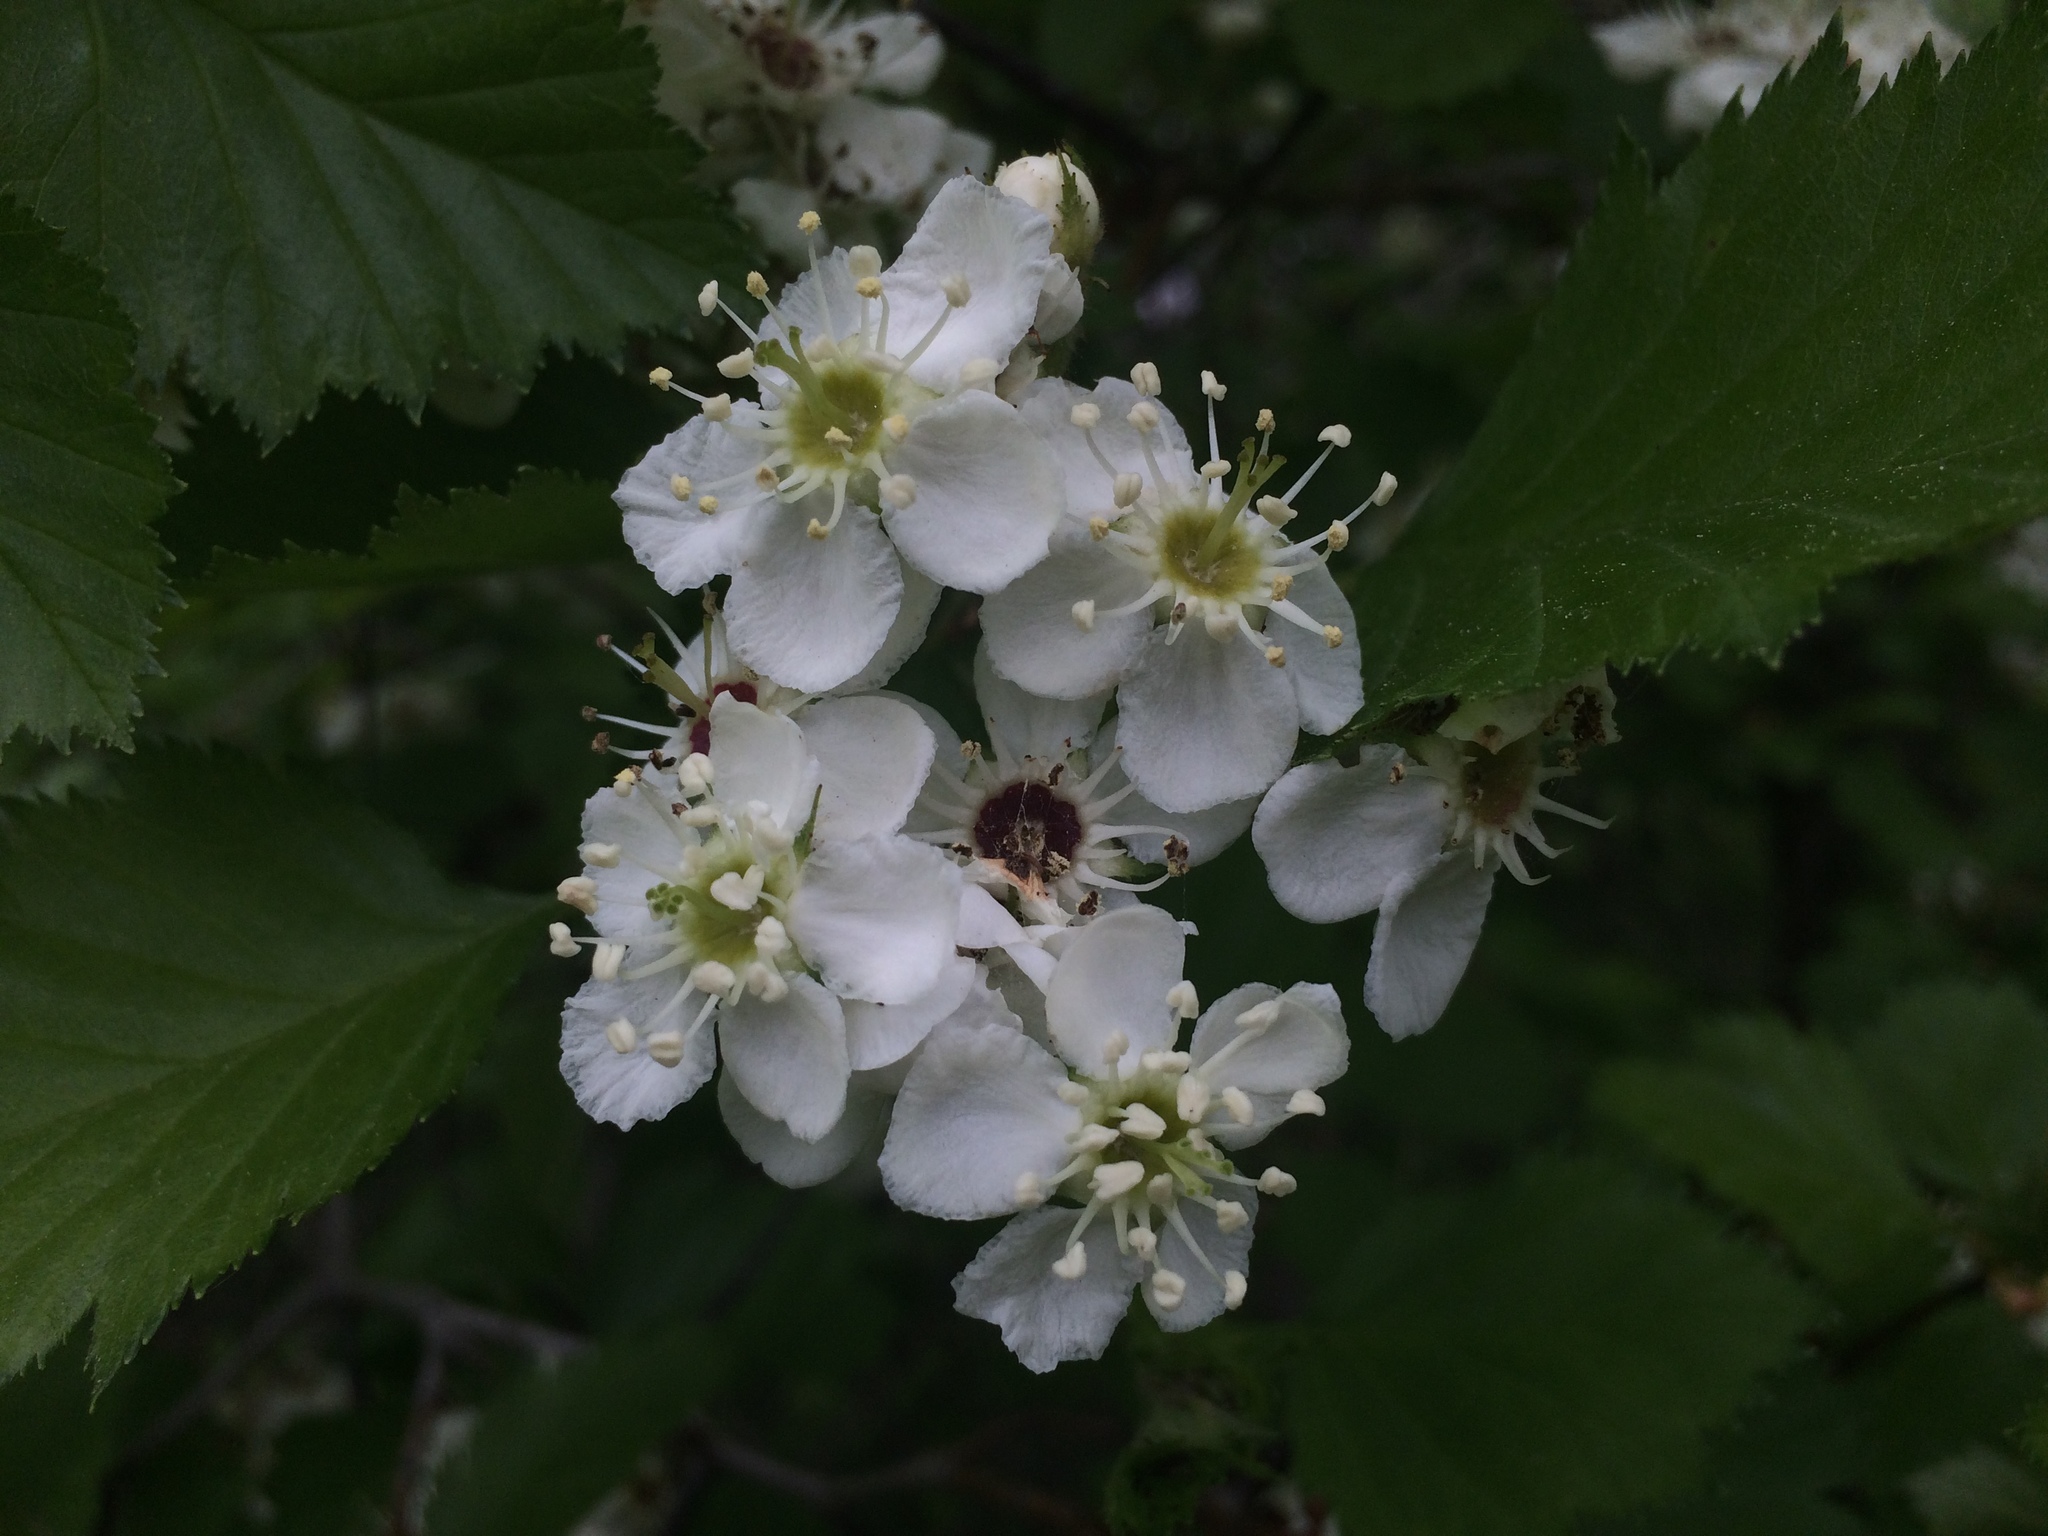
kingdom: Plantae
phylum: Tracheophyta
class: Magnoliopsida
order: Rosales
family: Rosaceae
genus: Crataegus
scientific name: Crataegus submollis
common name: Hairy cockspurthorn
